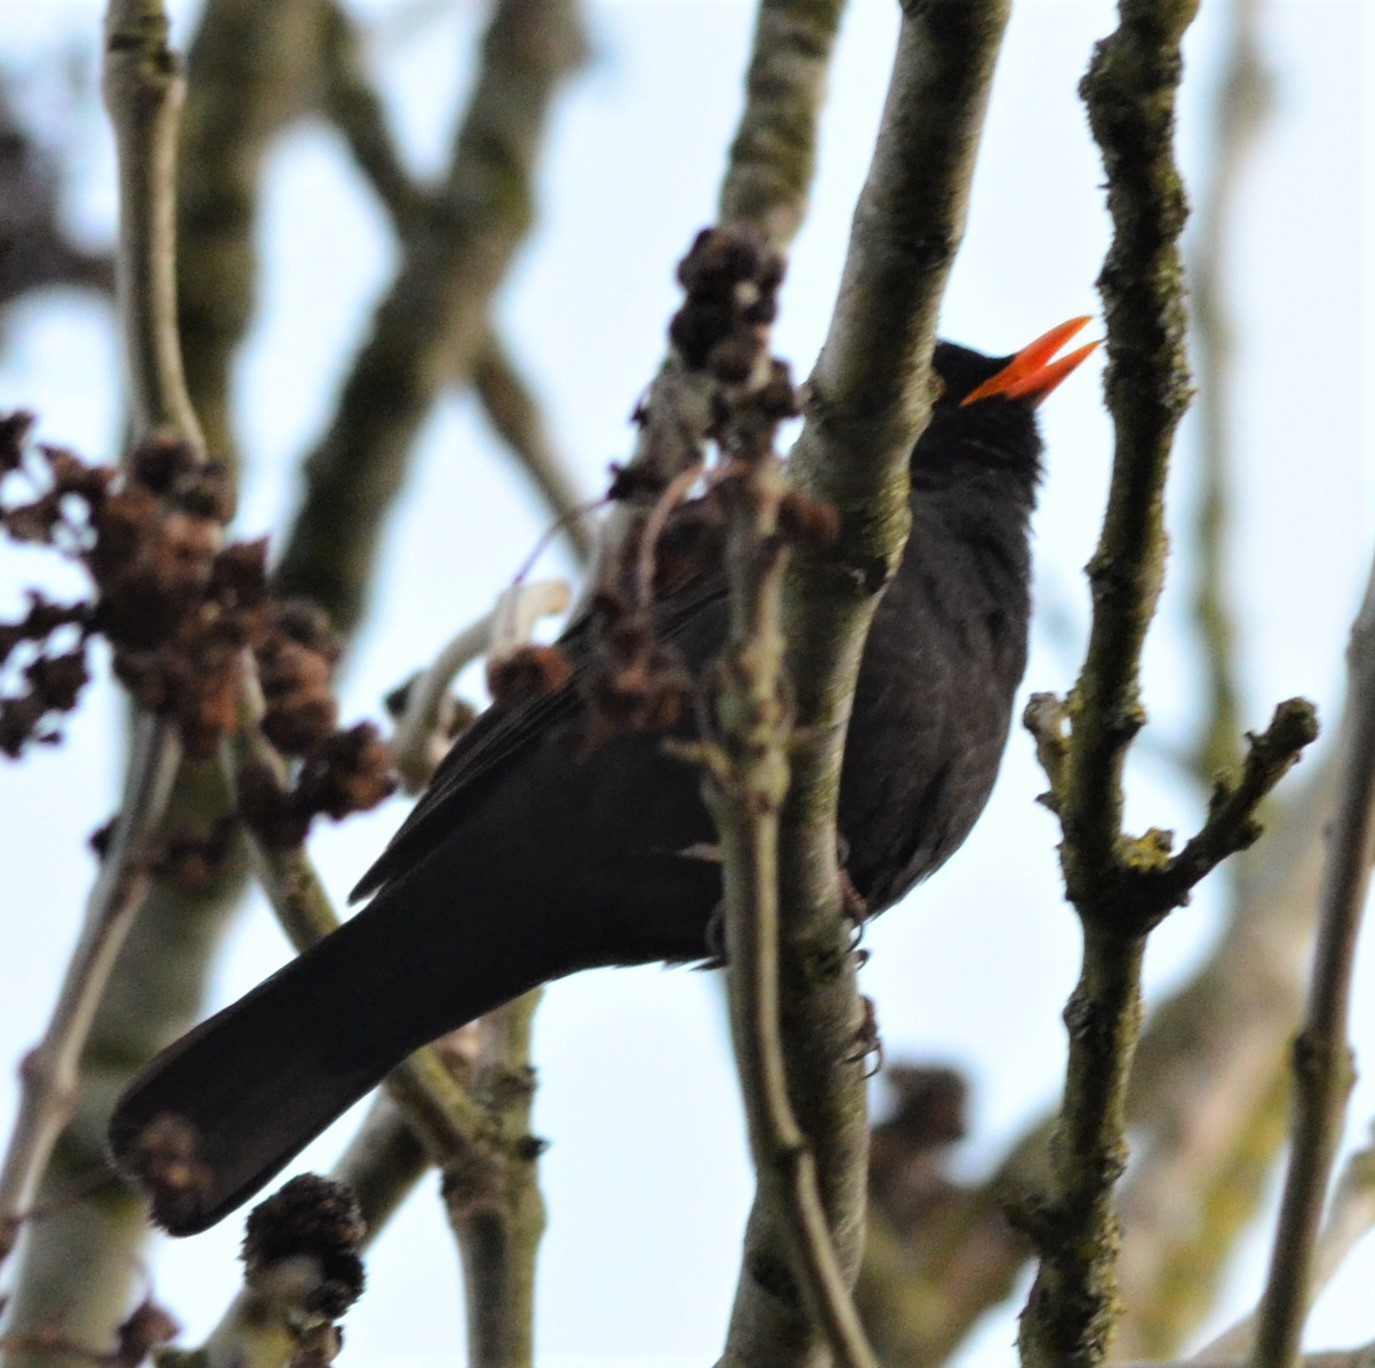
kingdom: Animalia
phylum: Chordata
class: Aves
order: Passeriformes
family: Turdidae
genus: Turdus
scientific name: Turdus merula
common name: Common blackbird
